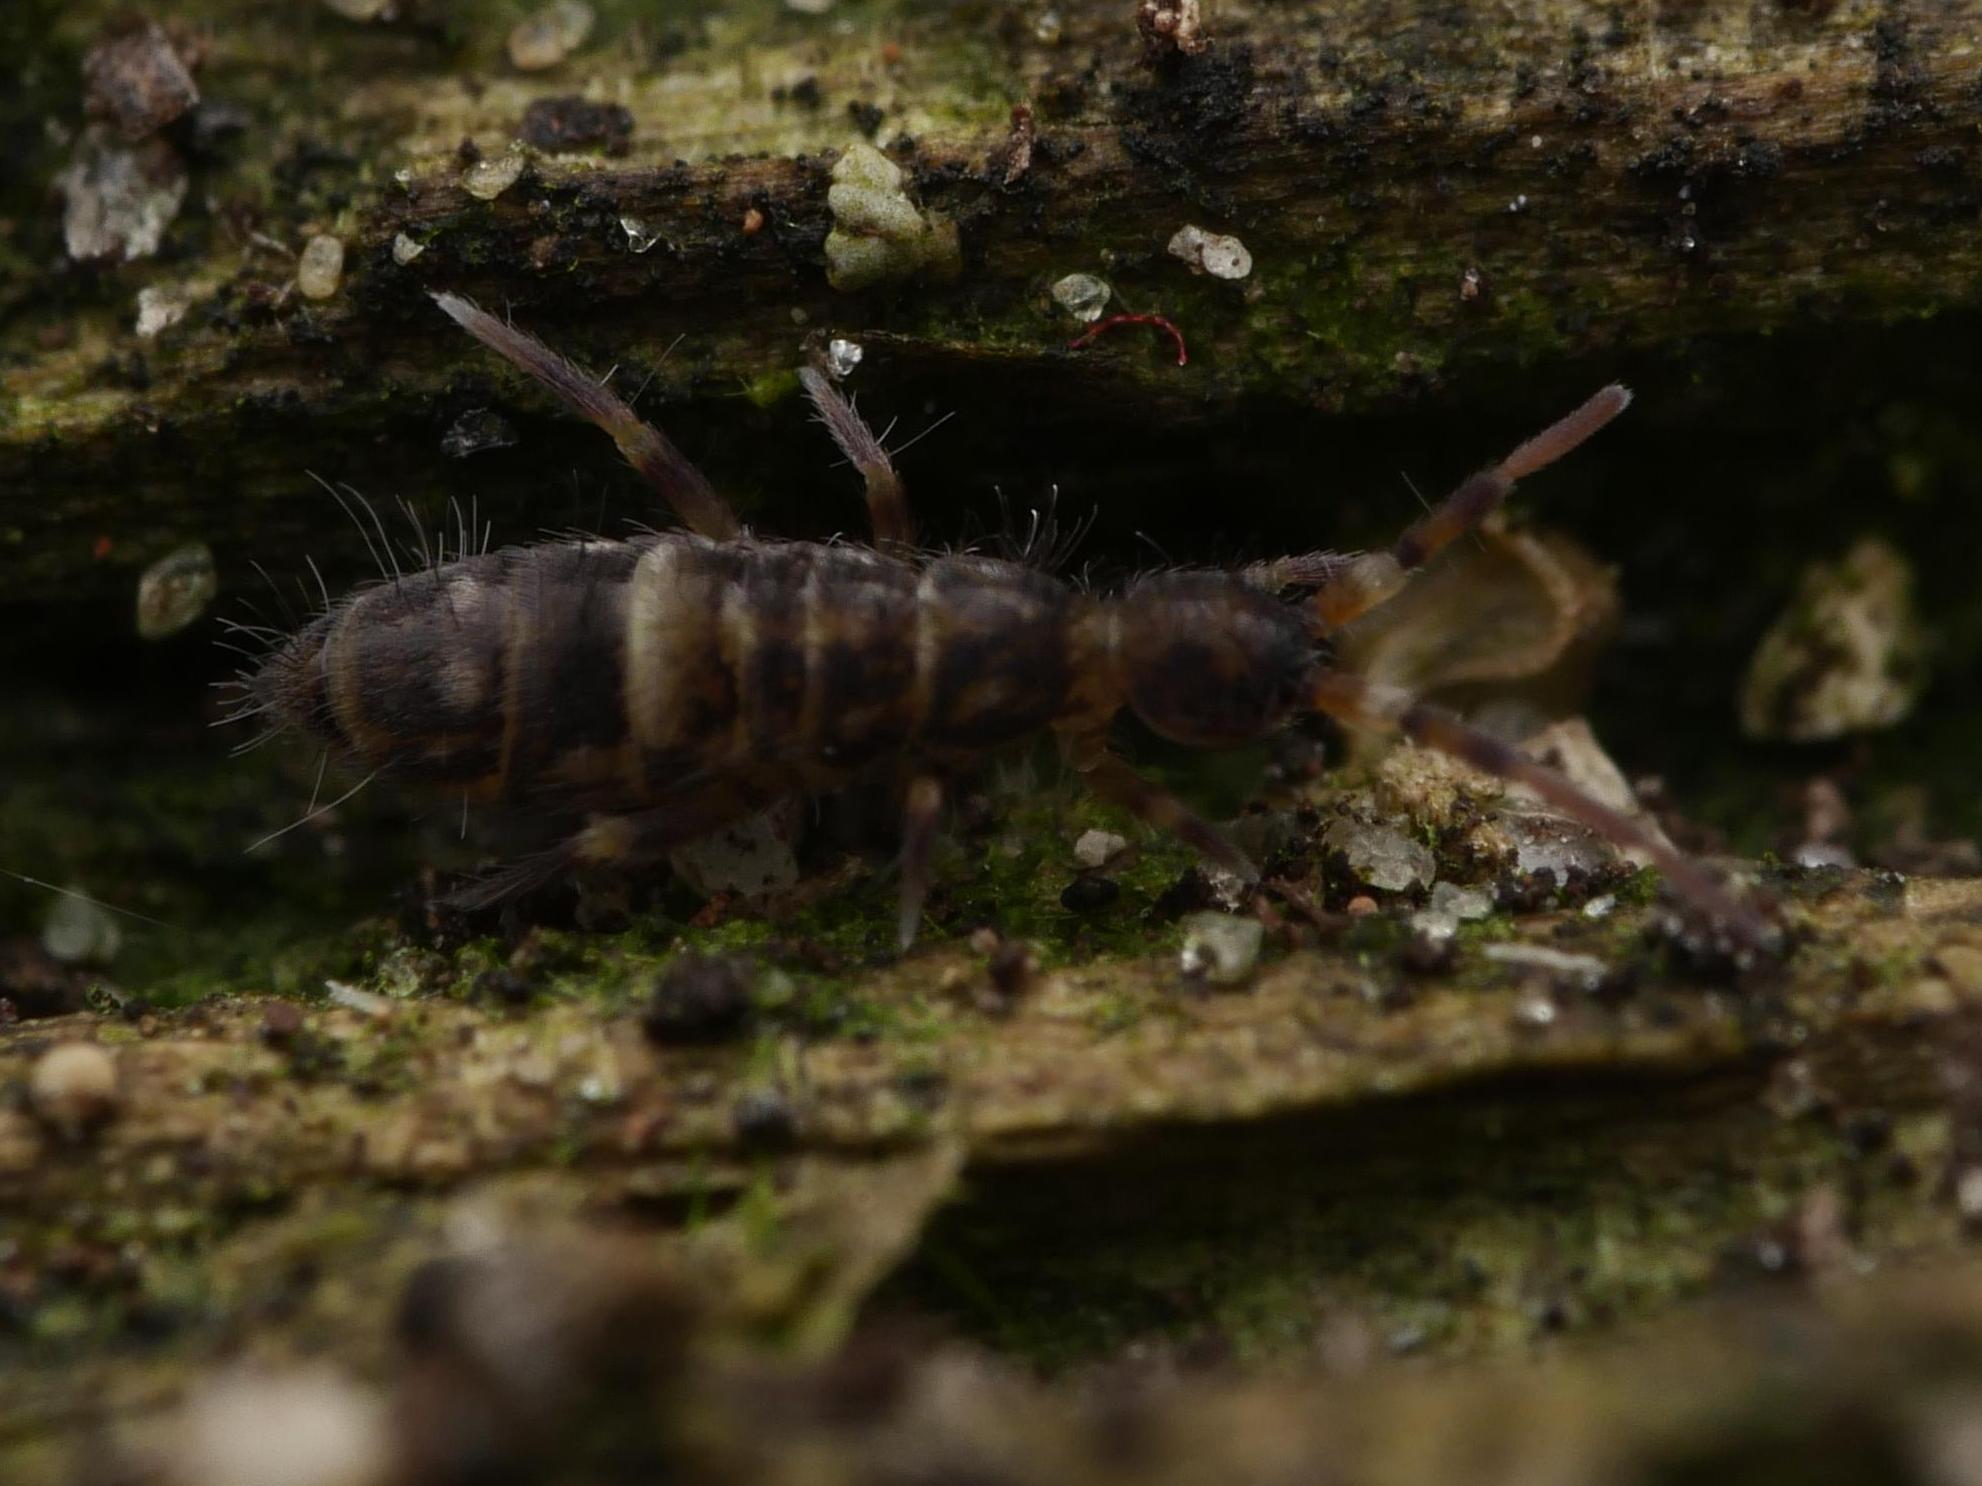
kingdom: Animalia
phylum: Arthropoda
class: Collembola
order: Entomobryomorpha
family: Orchesellidae
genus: Orchesella
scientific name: Orchesella cincta
